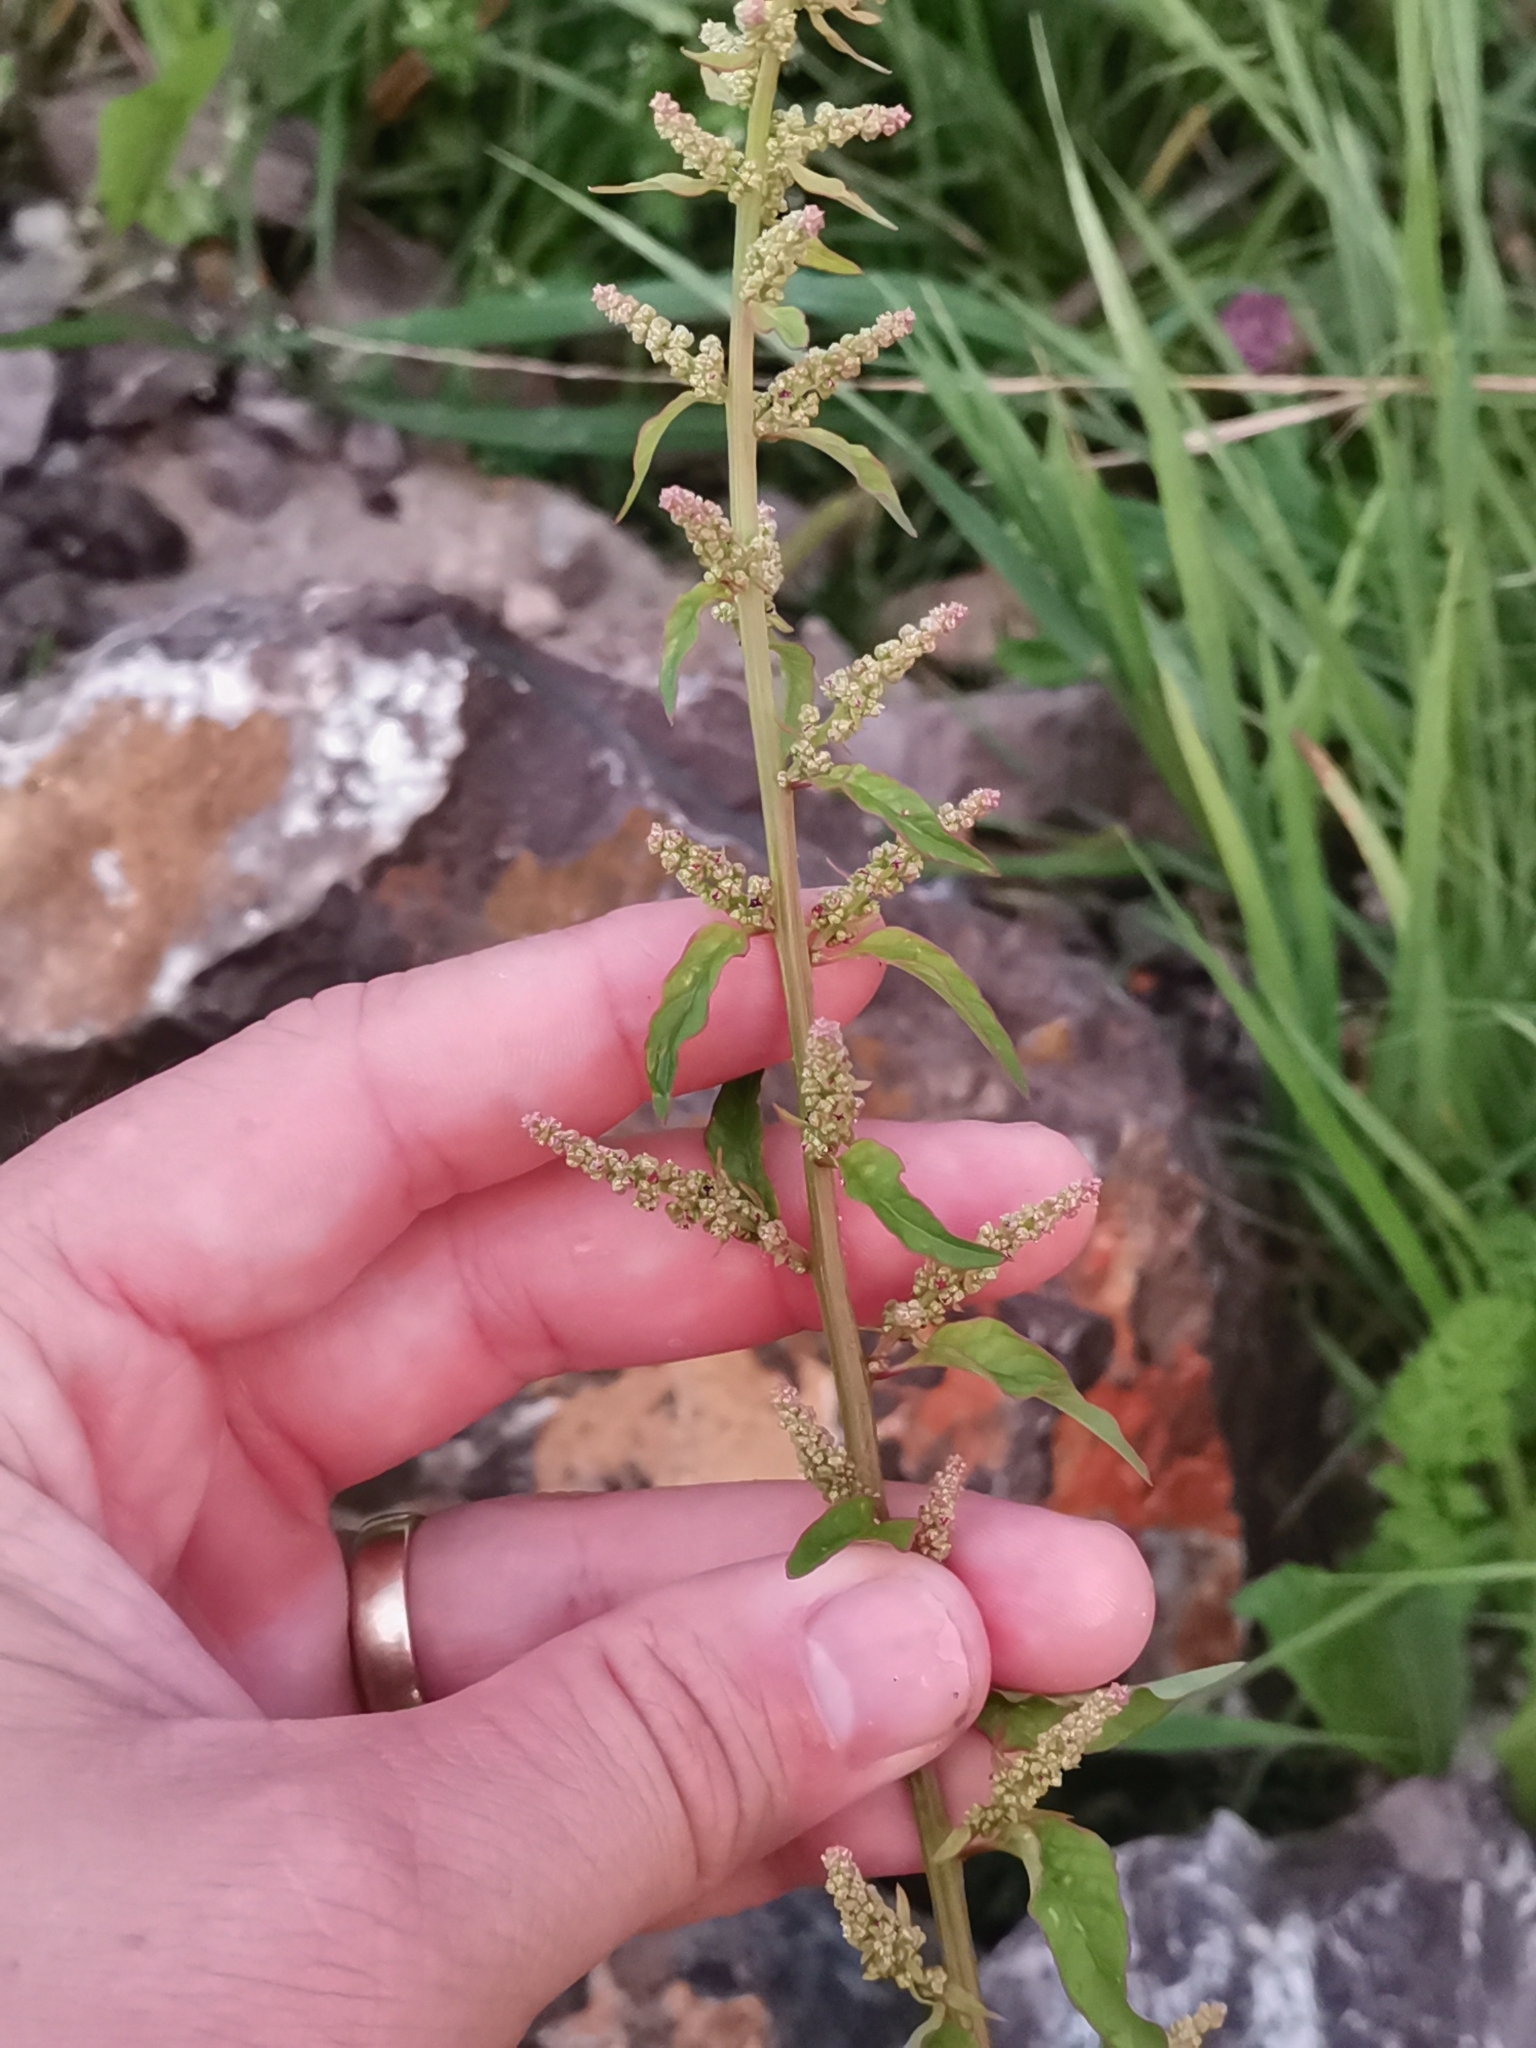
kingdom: Plantae
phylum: Tracheophyta
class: Magnoliopsida
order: Caryophyllales
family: Amaranthaceae
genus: Lipandra
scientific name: Lipandra polysperma
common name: Many-seed goosefoot
